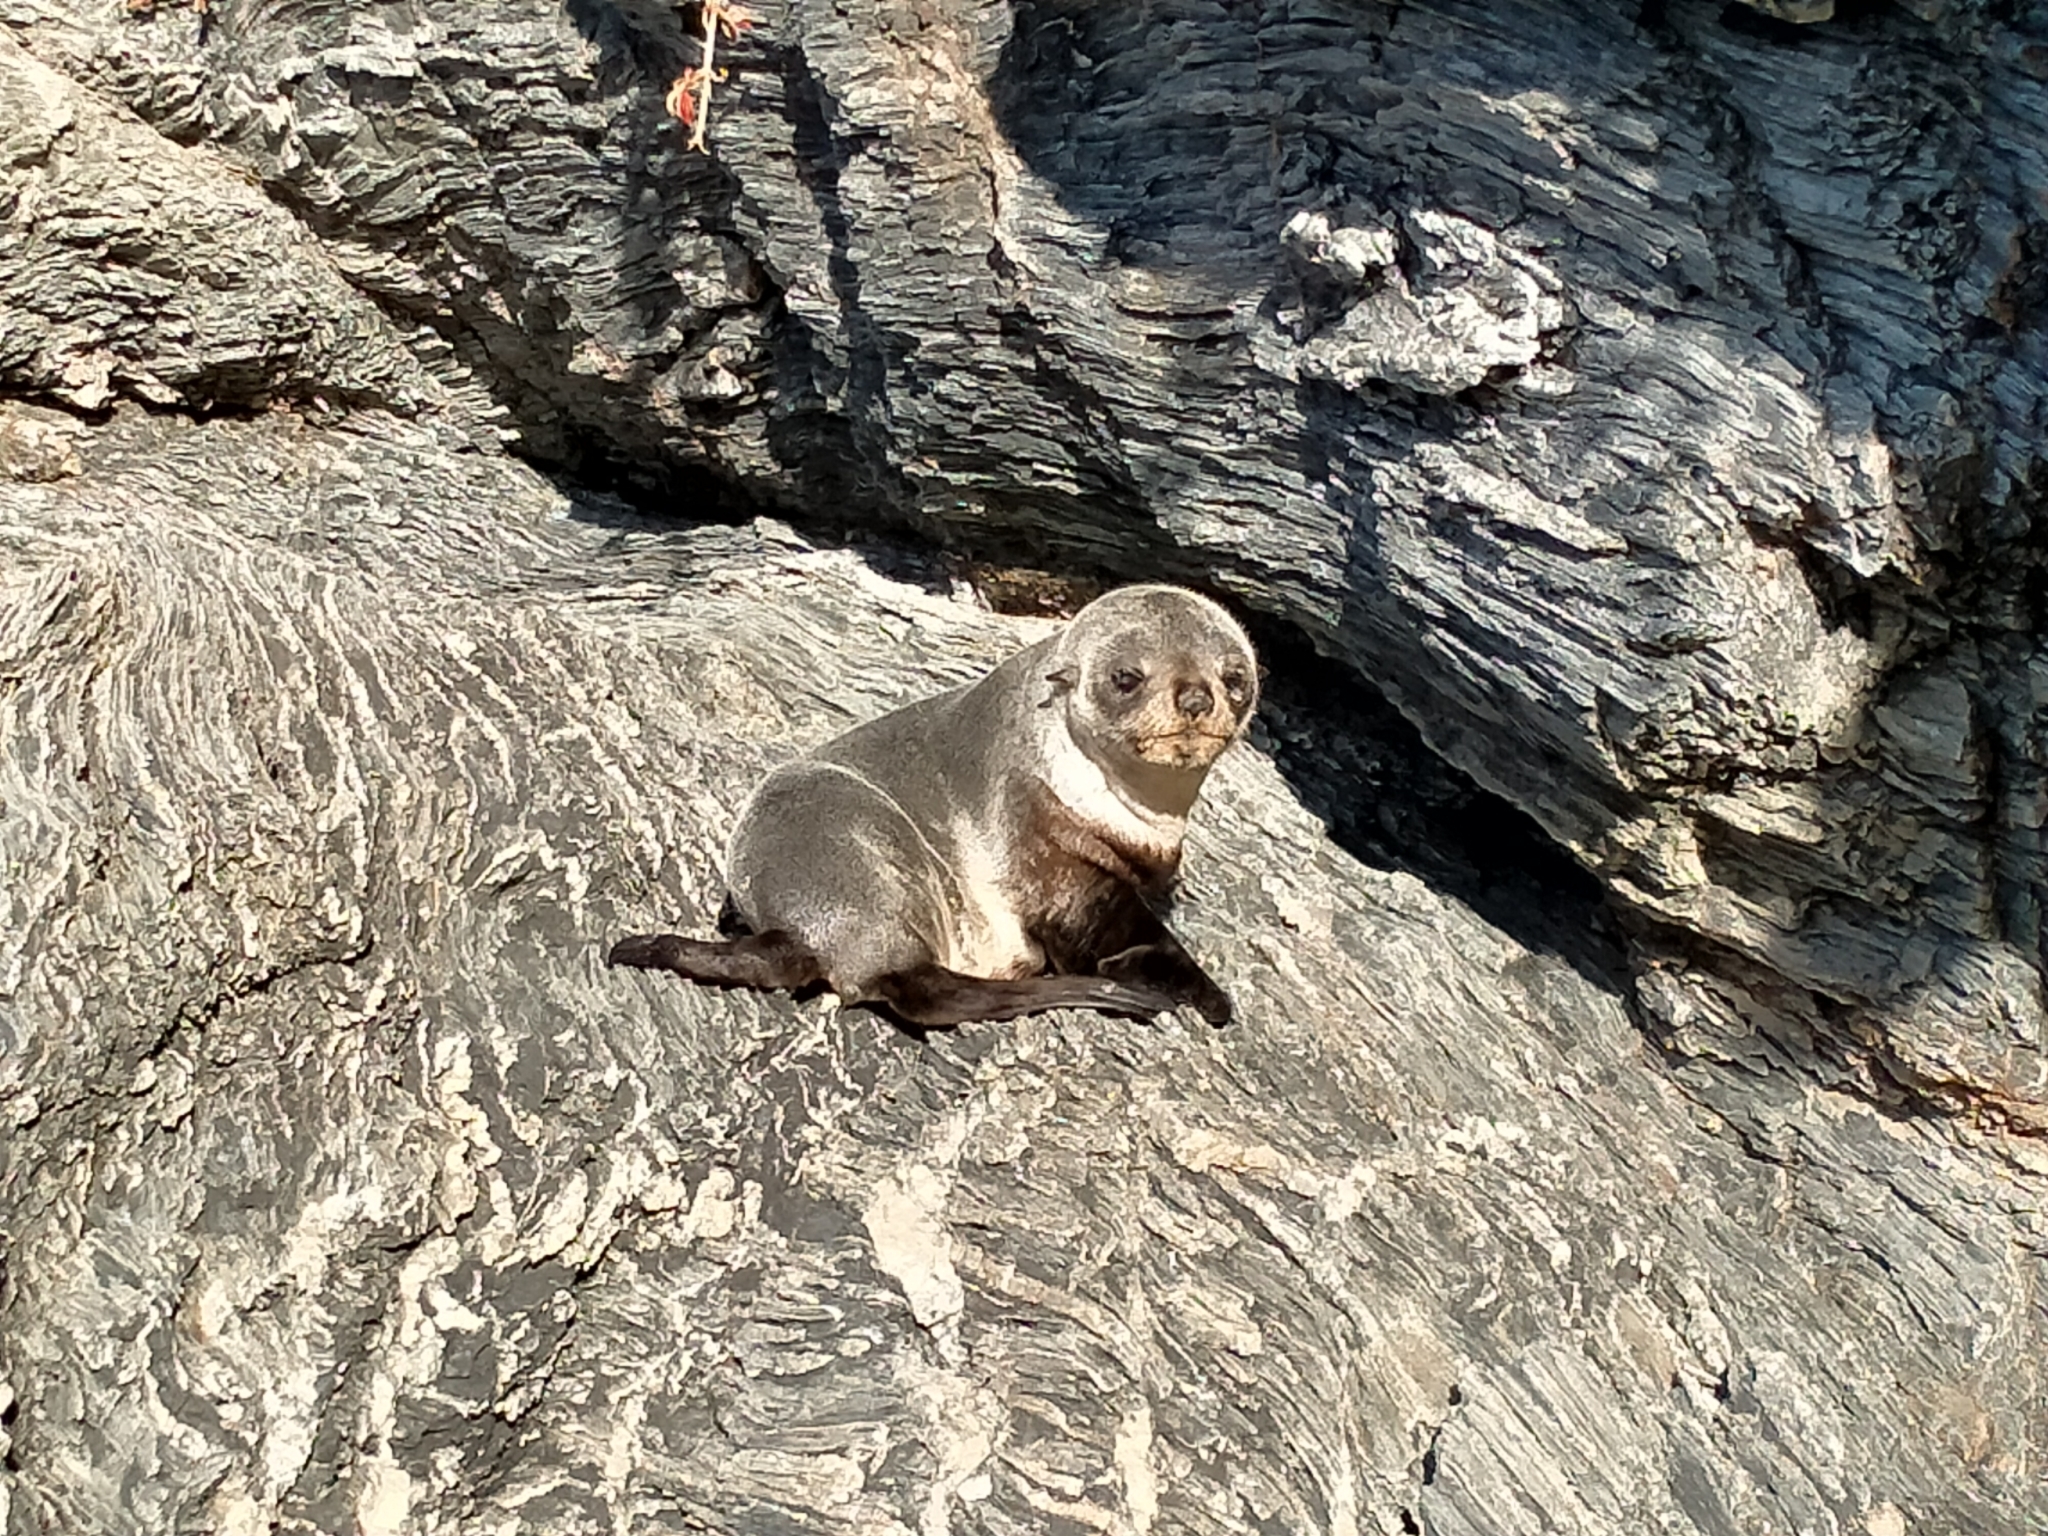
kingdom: Animalia
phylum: Chordata
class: Mammalia
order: Carnivora
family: Otariidae
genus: Arctocephalus
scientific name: Arctocephalus forsteri
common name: New zealand fur seal
